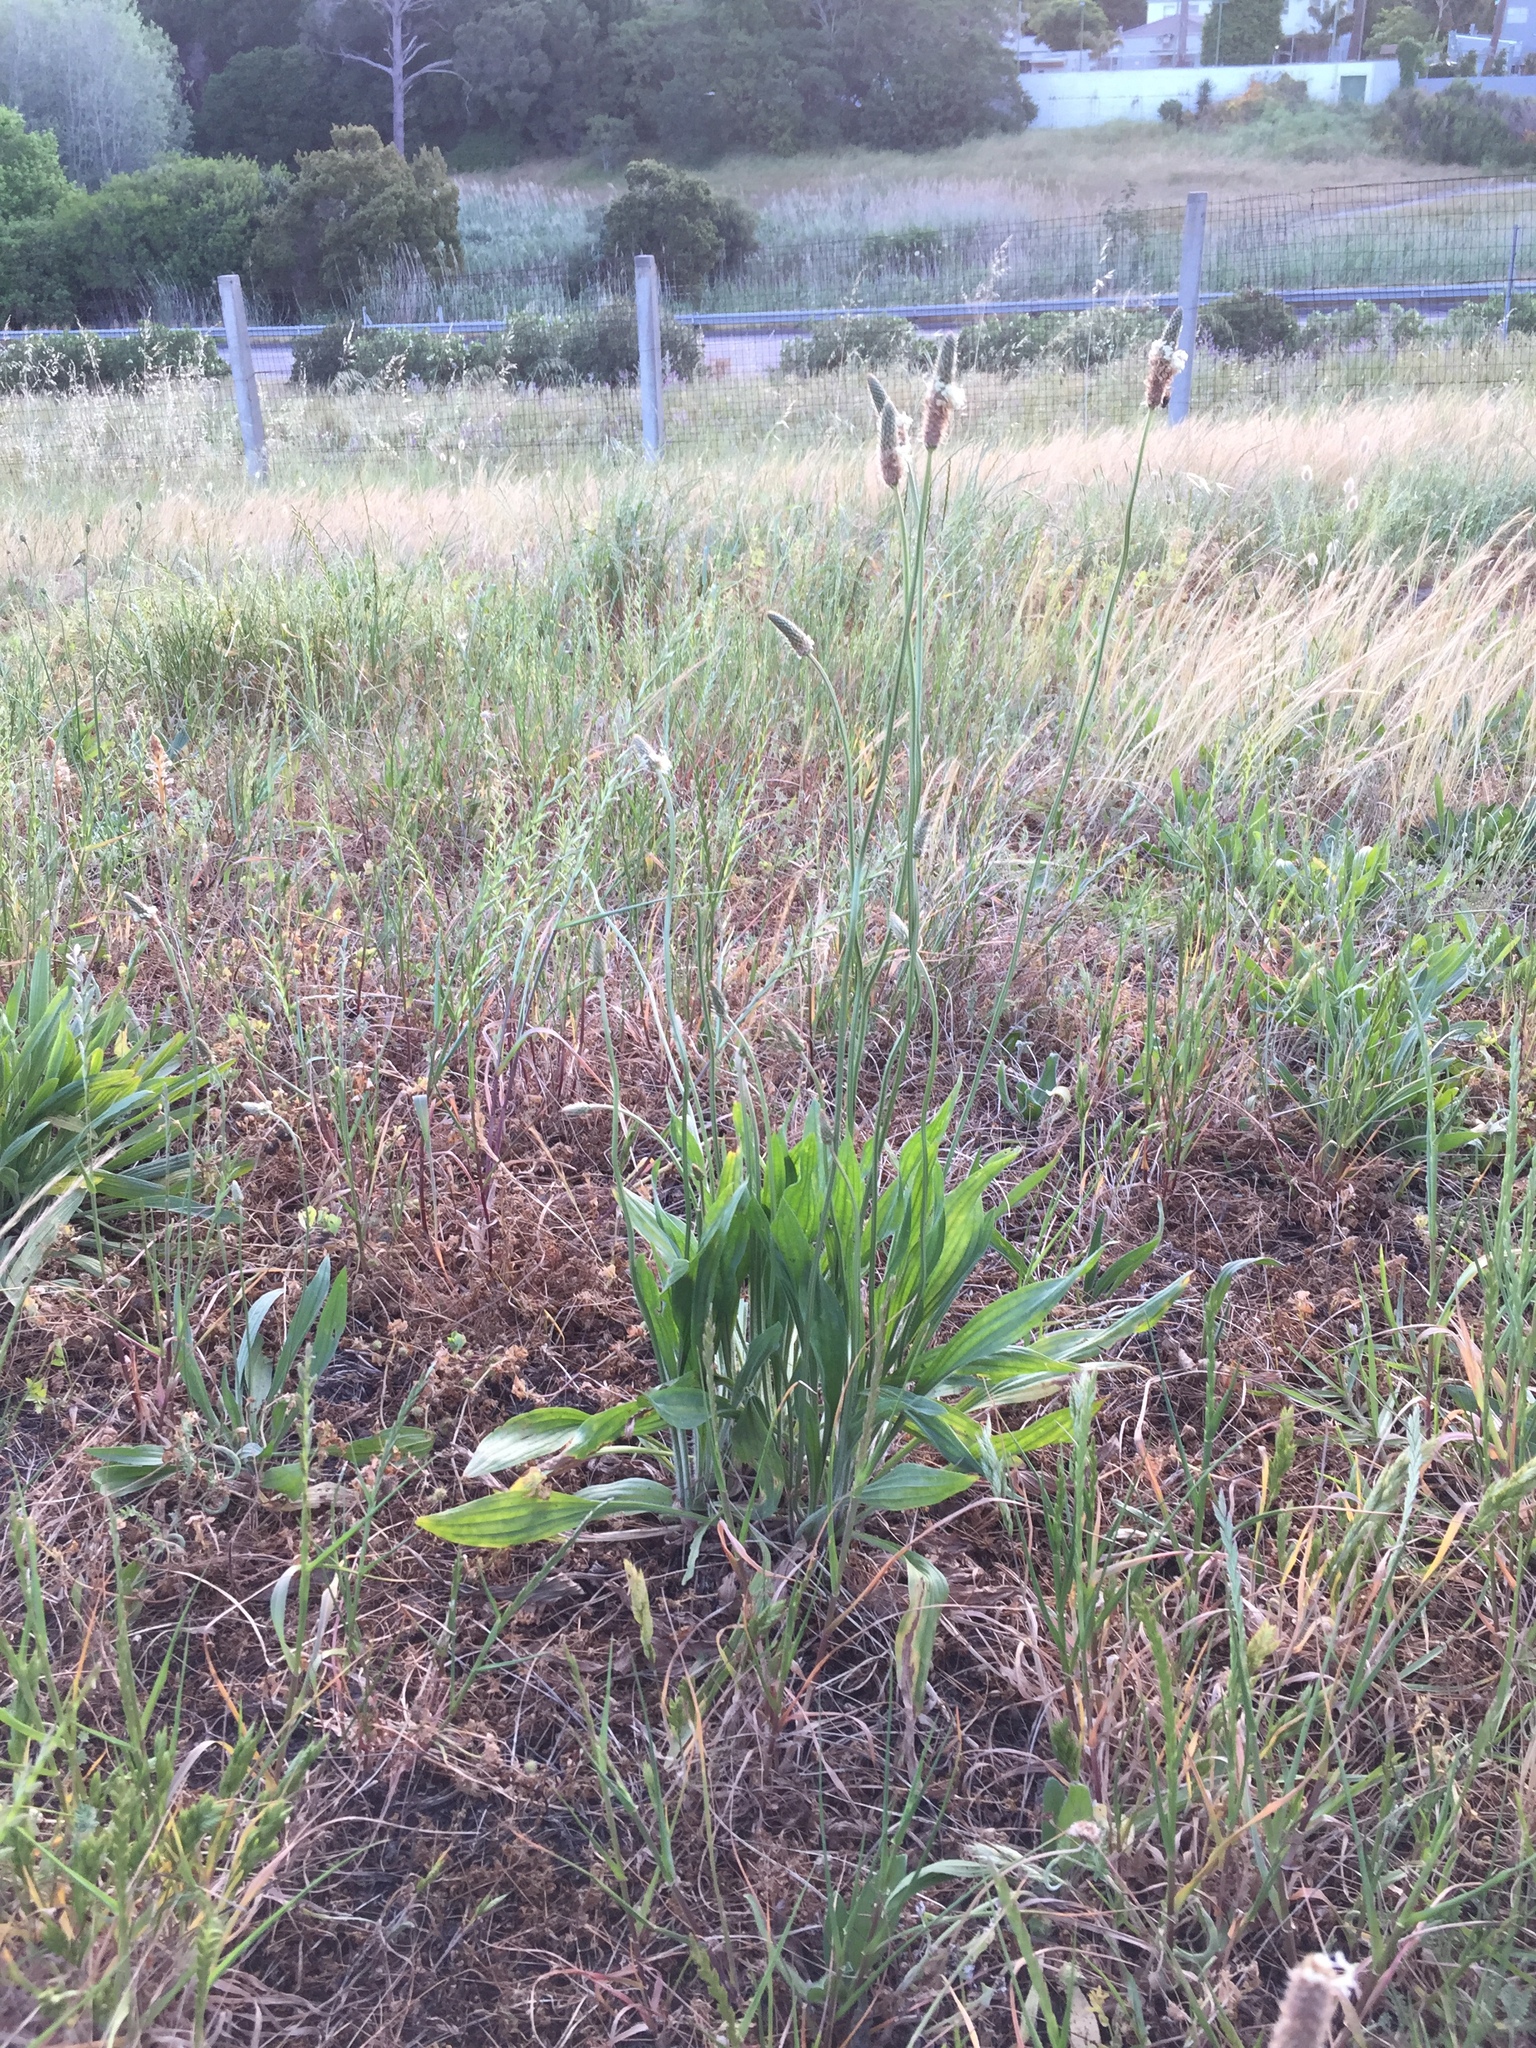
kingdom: Plantae
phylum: Tracheophyta
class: Magnoliopsida
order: Lamiales
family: Plantaginaceae
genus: Plantago
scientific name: Plantago lanceolata
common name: Ribwort plantain
